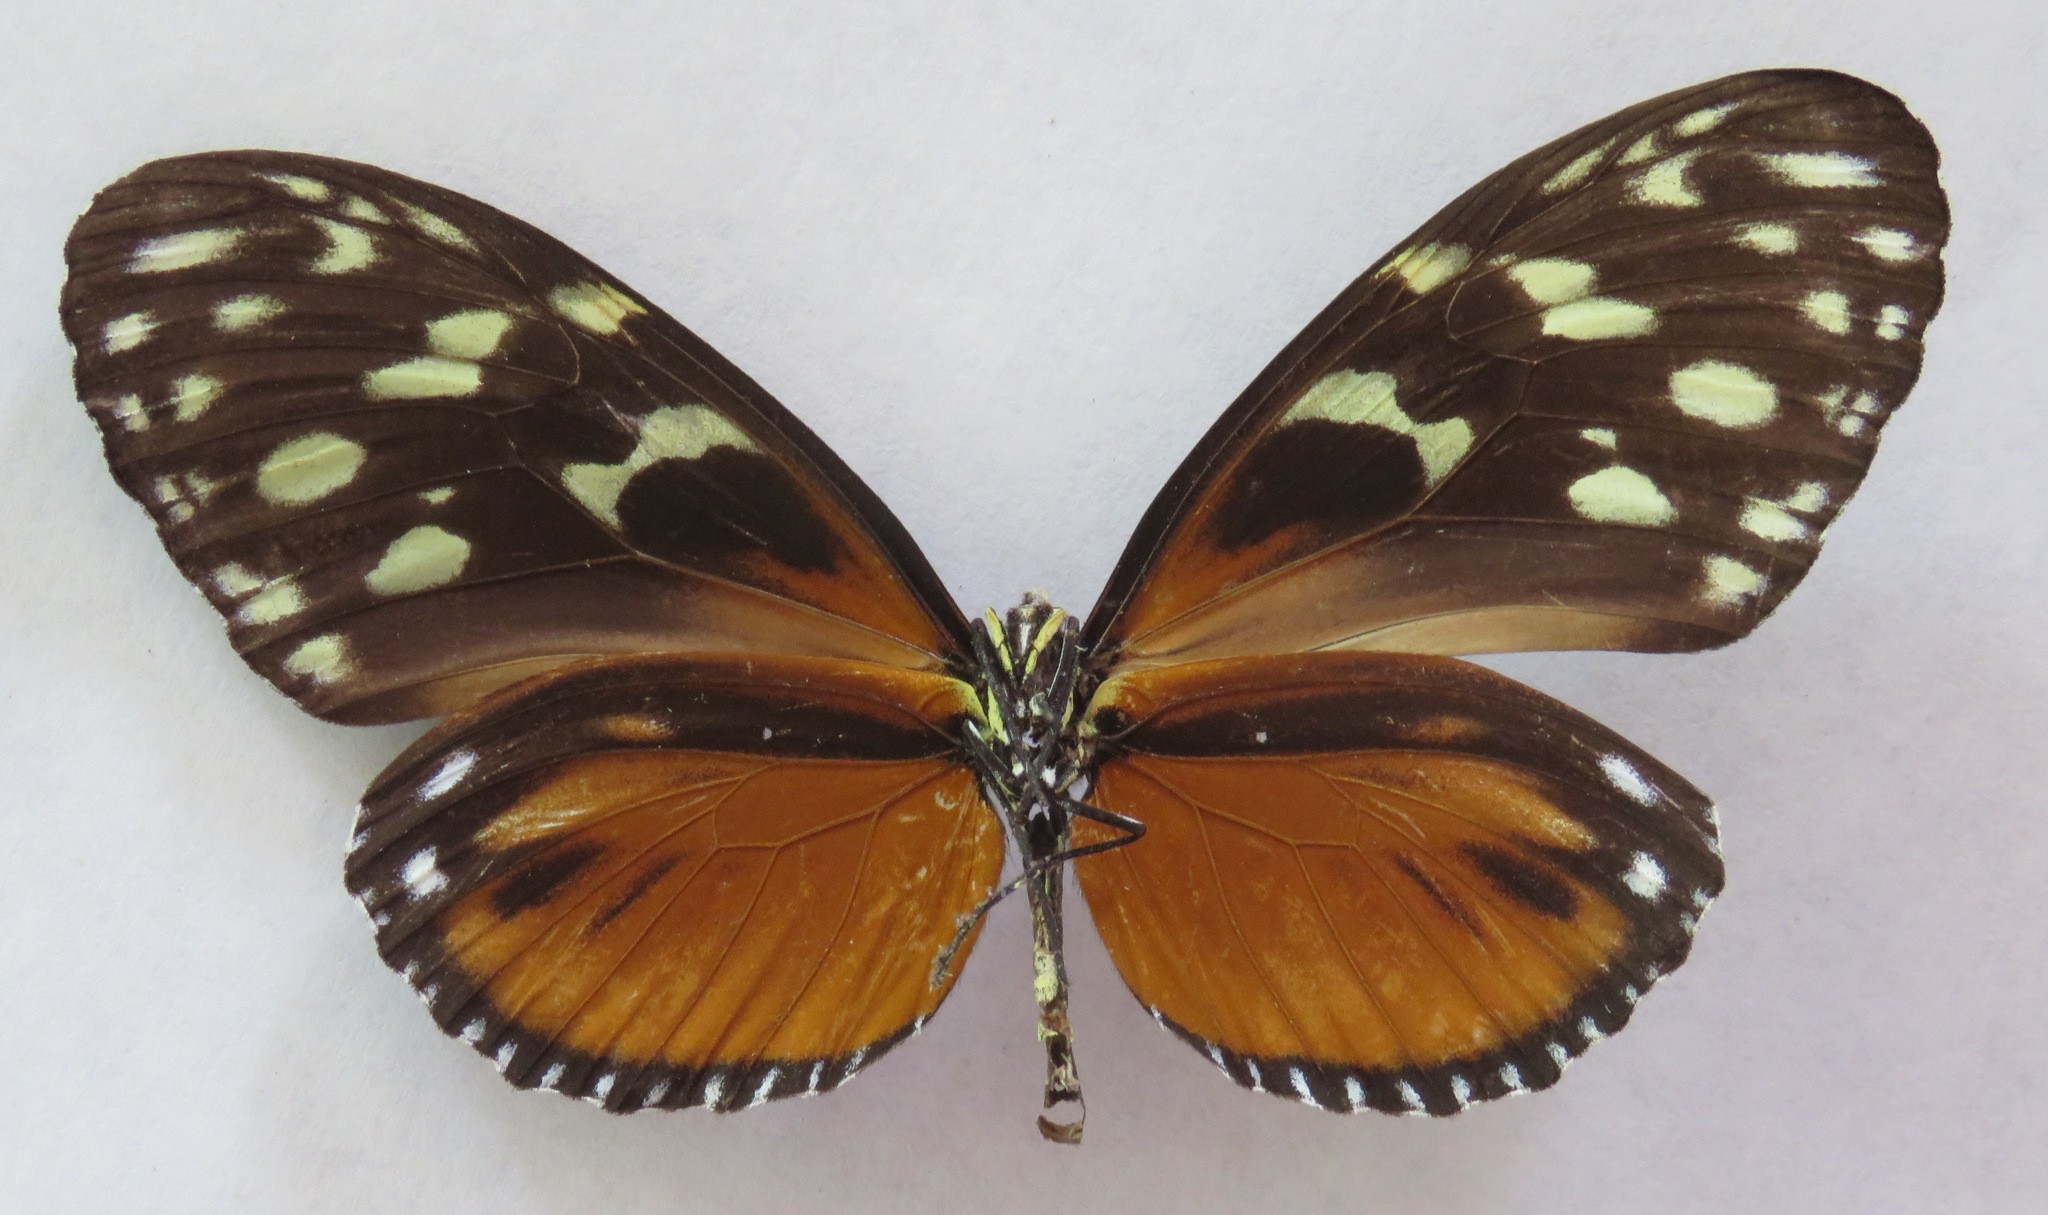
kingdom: Animalia
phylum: Arthropoda
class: Insecta
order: Lepidoptera
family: Nymphalidae
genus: Heliconius
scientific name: Heliconius hecale
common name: Tiger longwing
